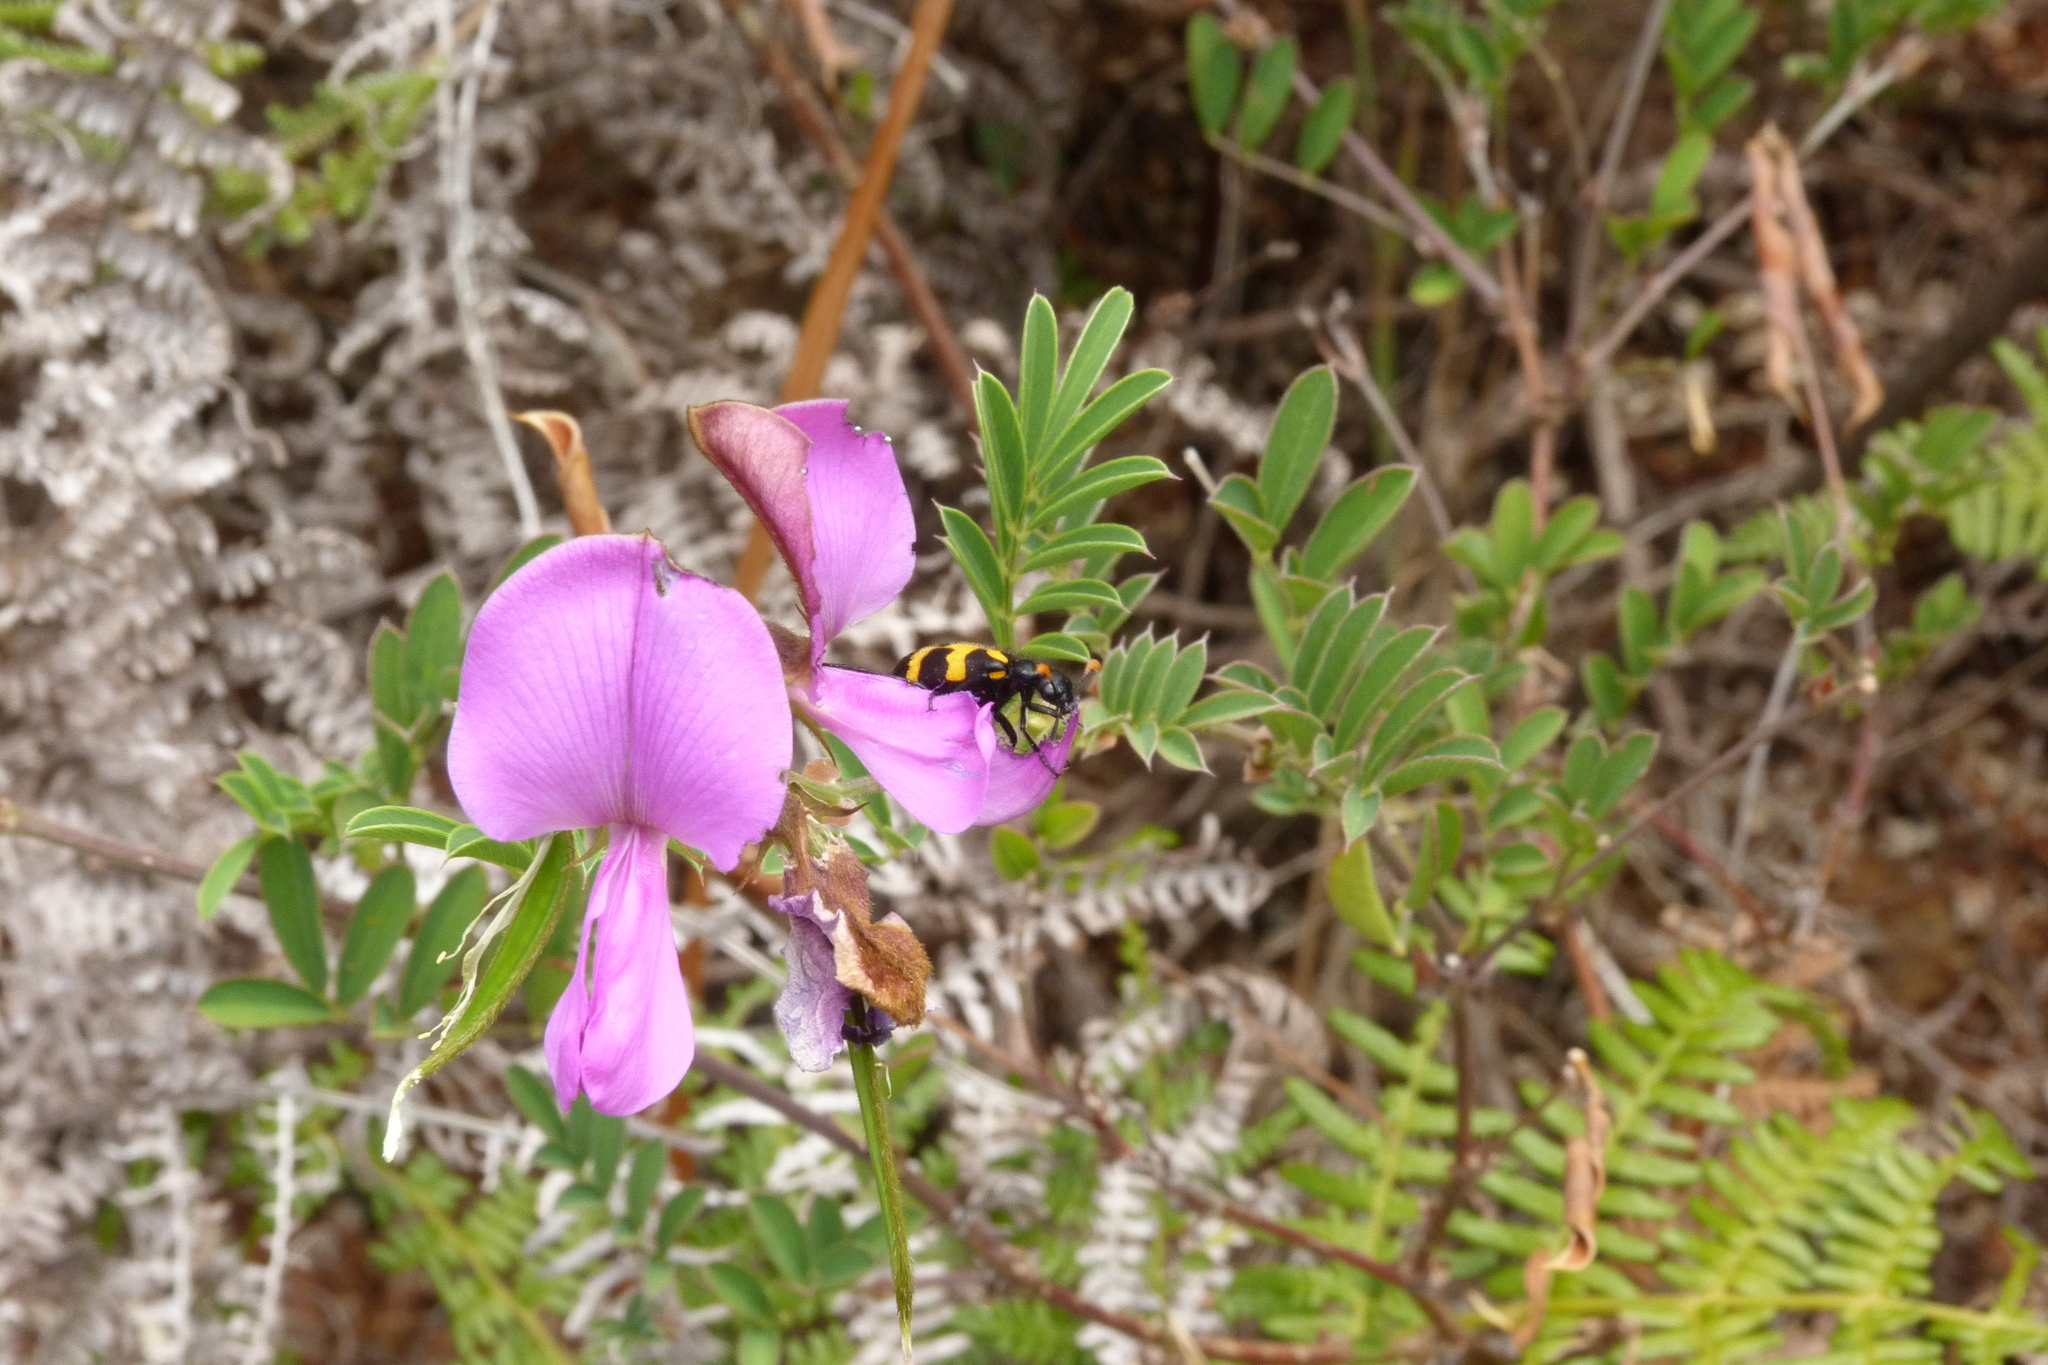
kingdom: Animalia
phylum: Arthropoda
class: Insecta
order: Coleoptera
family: Meloidae
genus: Meloe
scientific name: Meloe lunata
